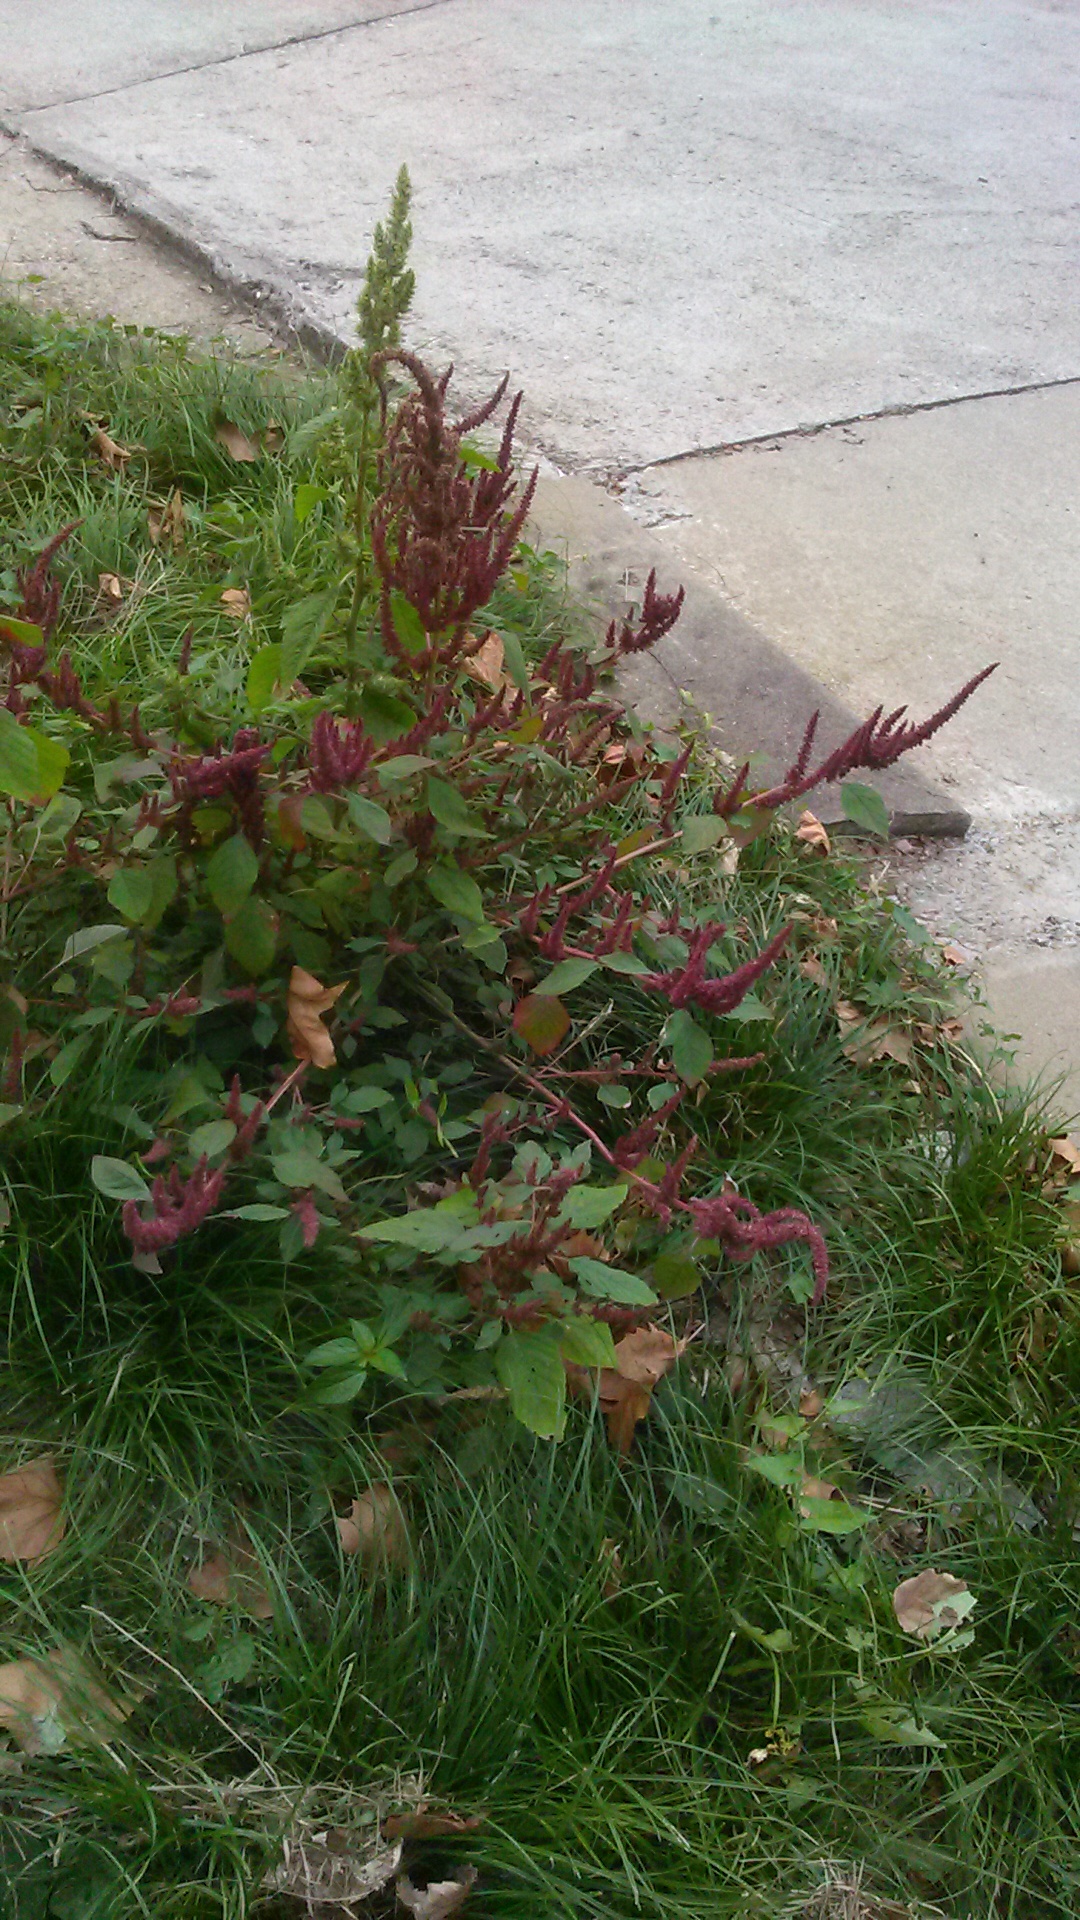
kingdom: Plantae
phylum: Tracheophyta
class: Magnoliopsida
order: Caryophyllales
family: Amaranthaceae
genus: Amaranthus
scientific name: Amaranthus hypochondriacus
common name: Prince's-feather
